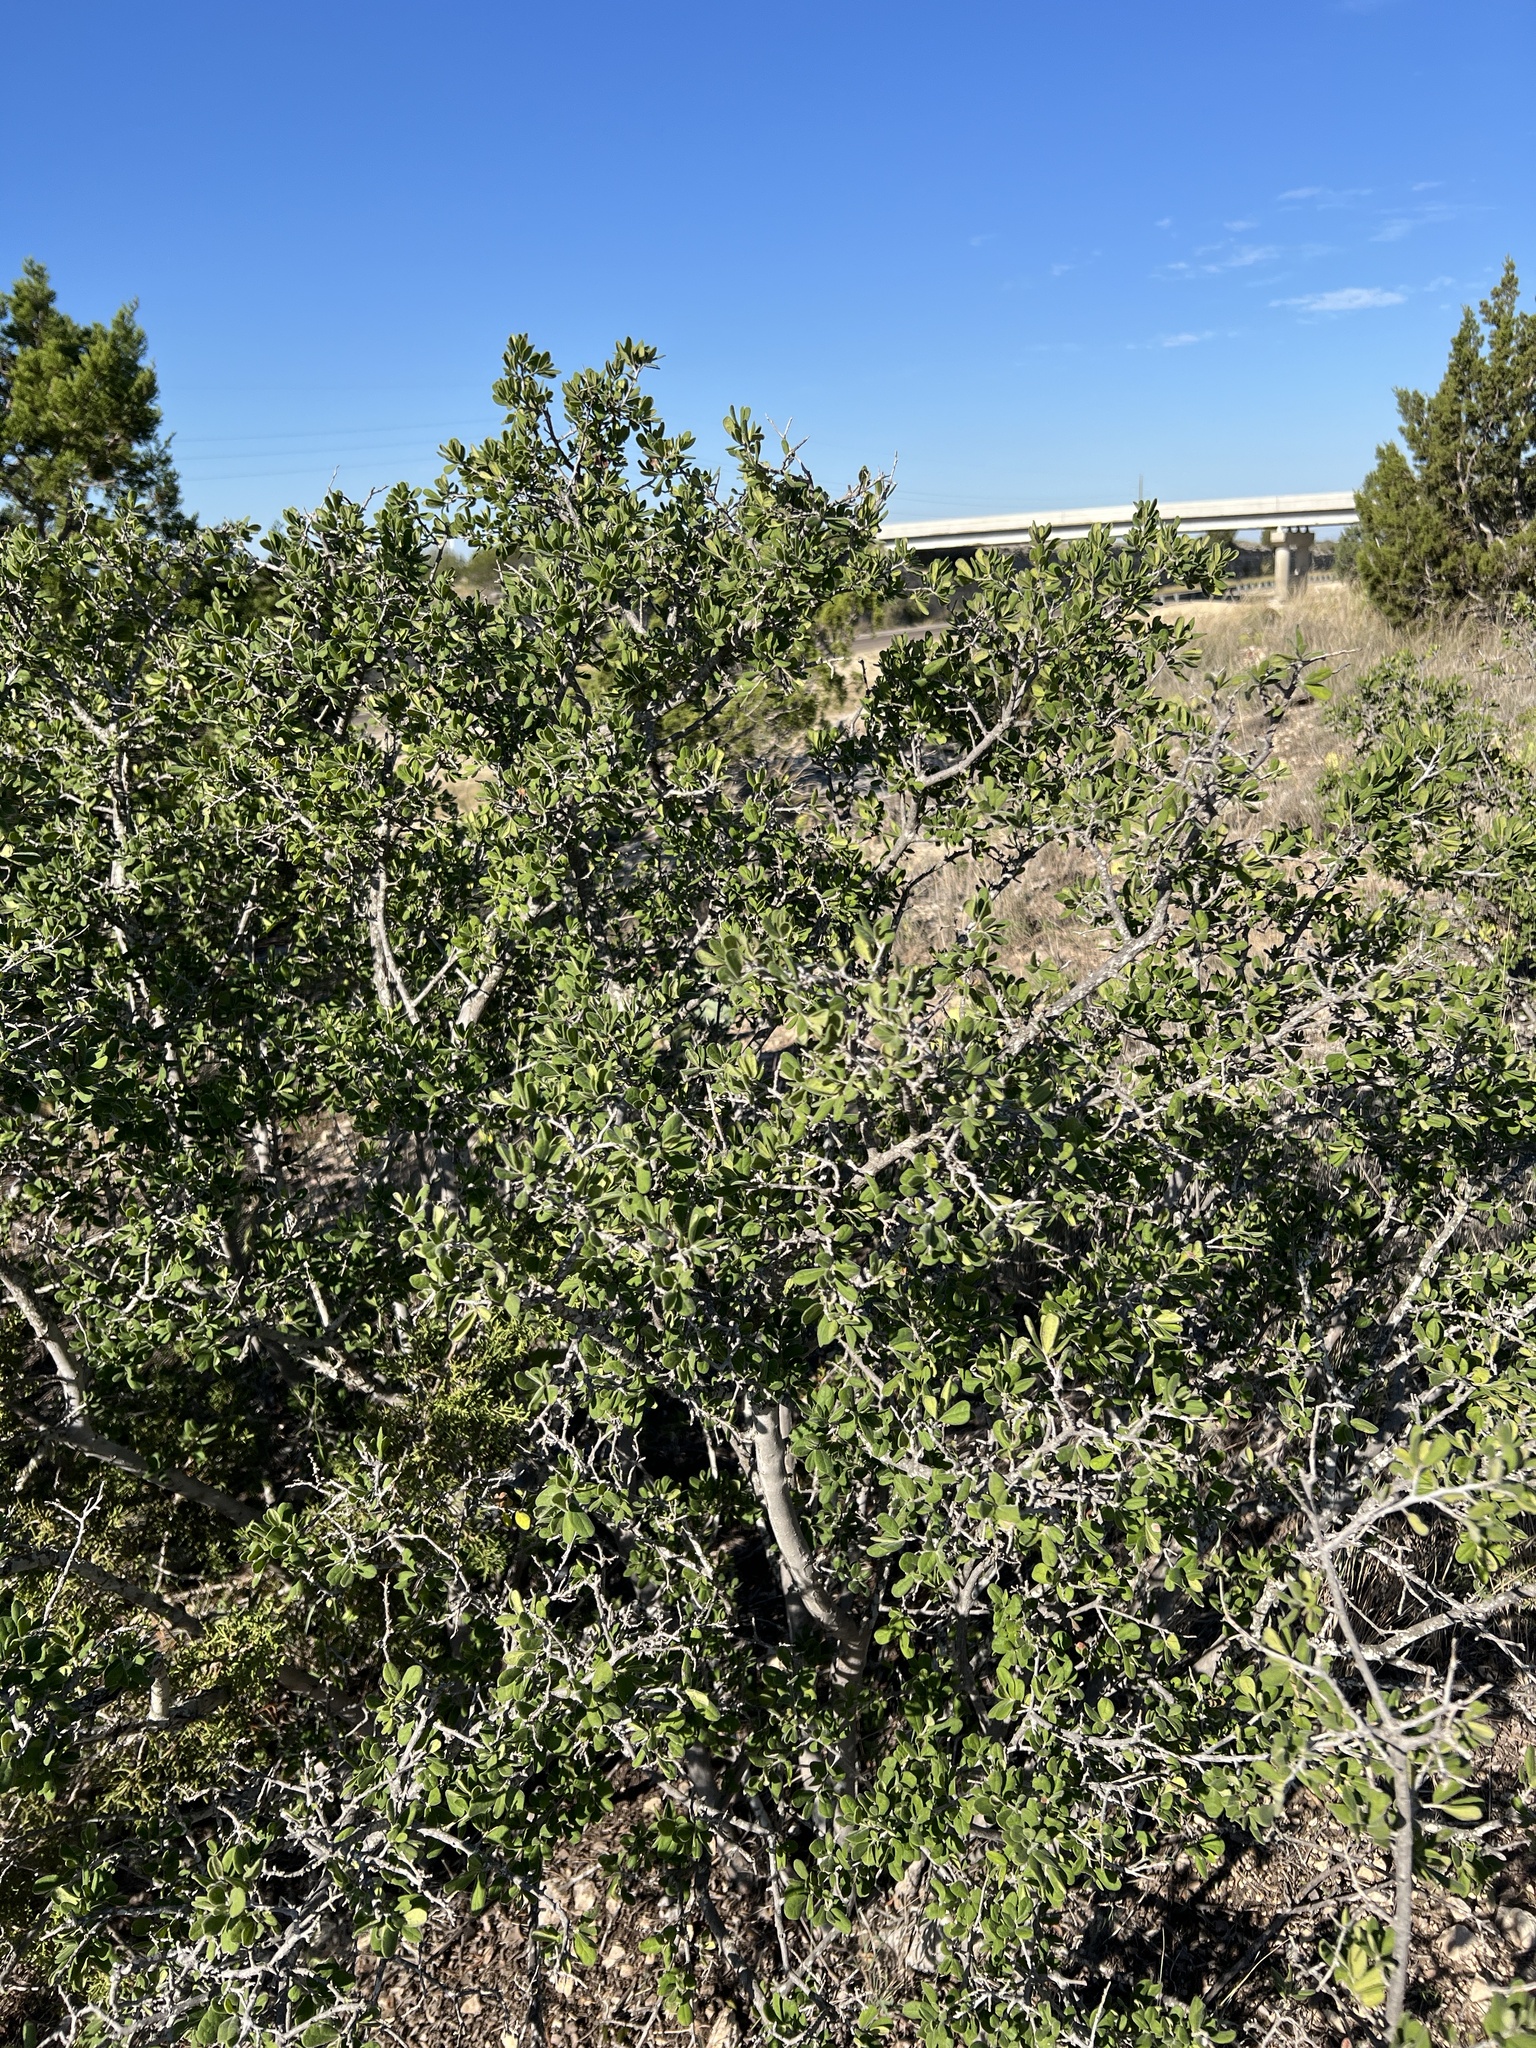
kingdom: Plantae
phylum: Tracheophyta
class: Magnoliopsida
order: Ericales
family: Ebenaceae
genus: Diospyros
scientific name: Diospyros texana
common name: Texas persimmon
